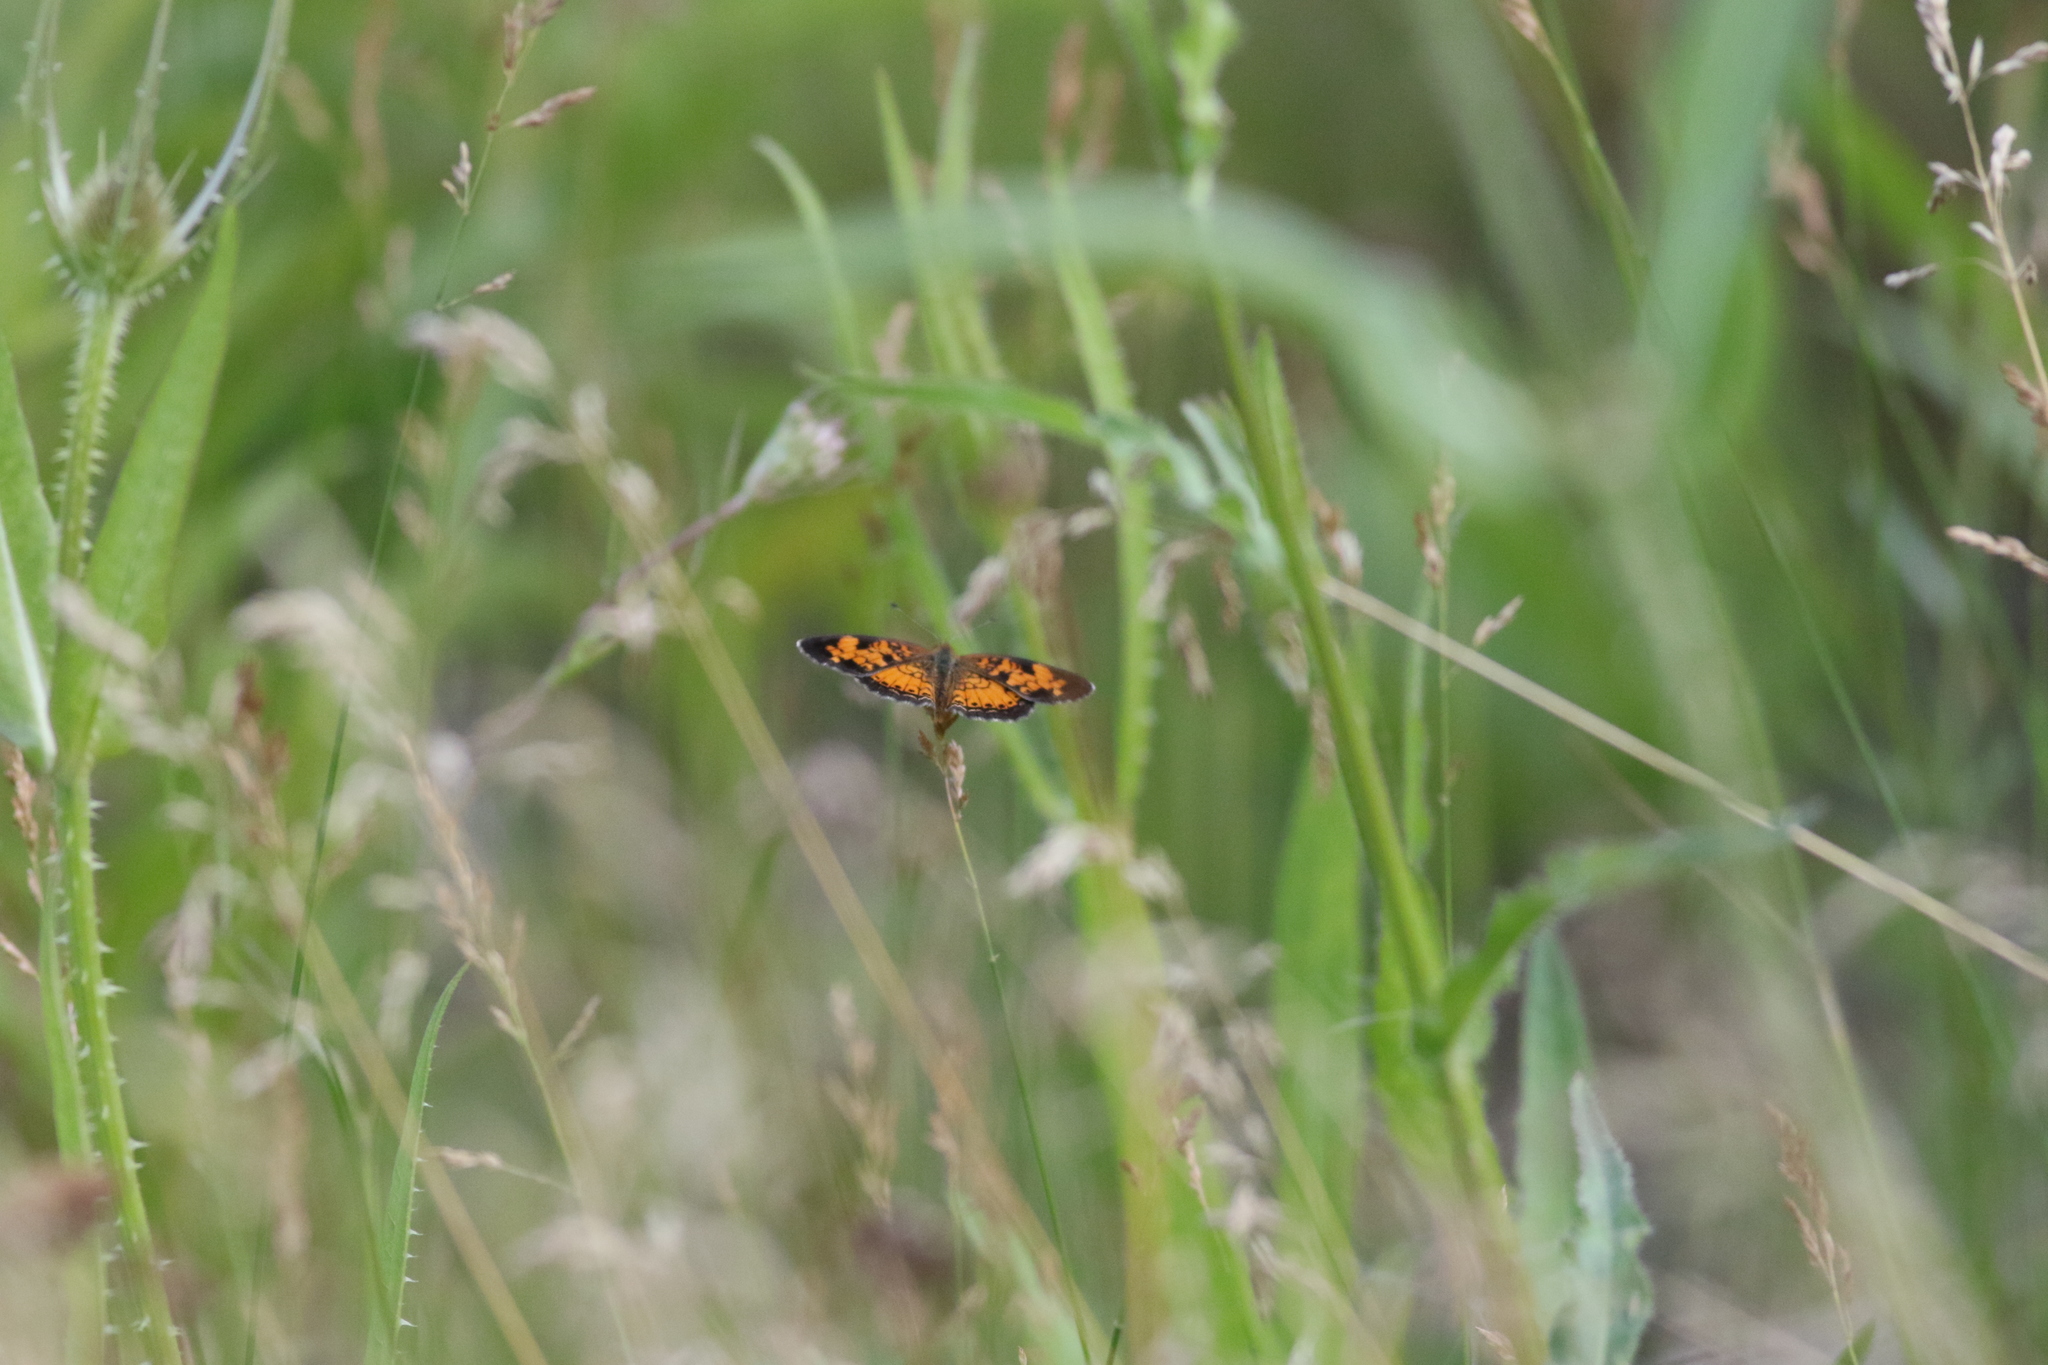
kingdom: Animalia
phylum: Arthropoda
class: Insecta
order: Lepidoptera
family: Nymphalidae
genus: Phyciodes
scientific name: Phyciodes tharos
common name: Pearl crescent
